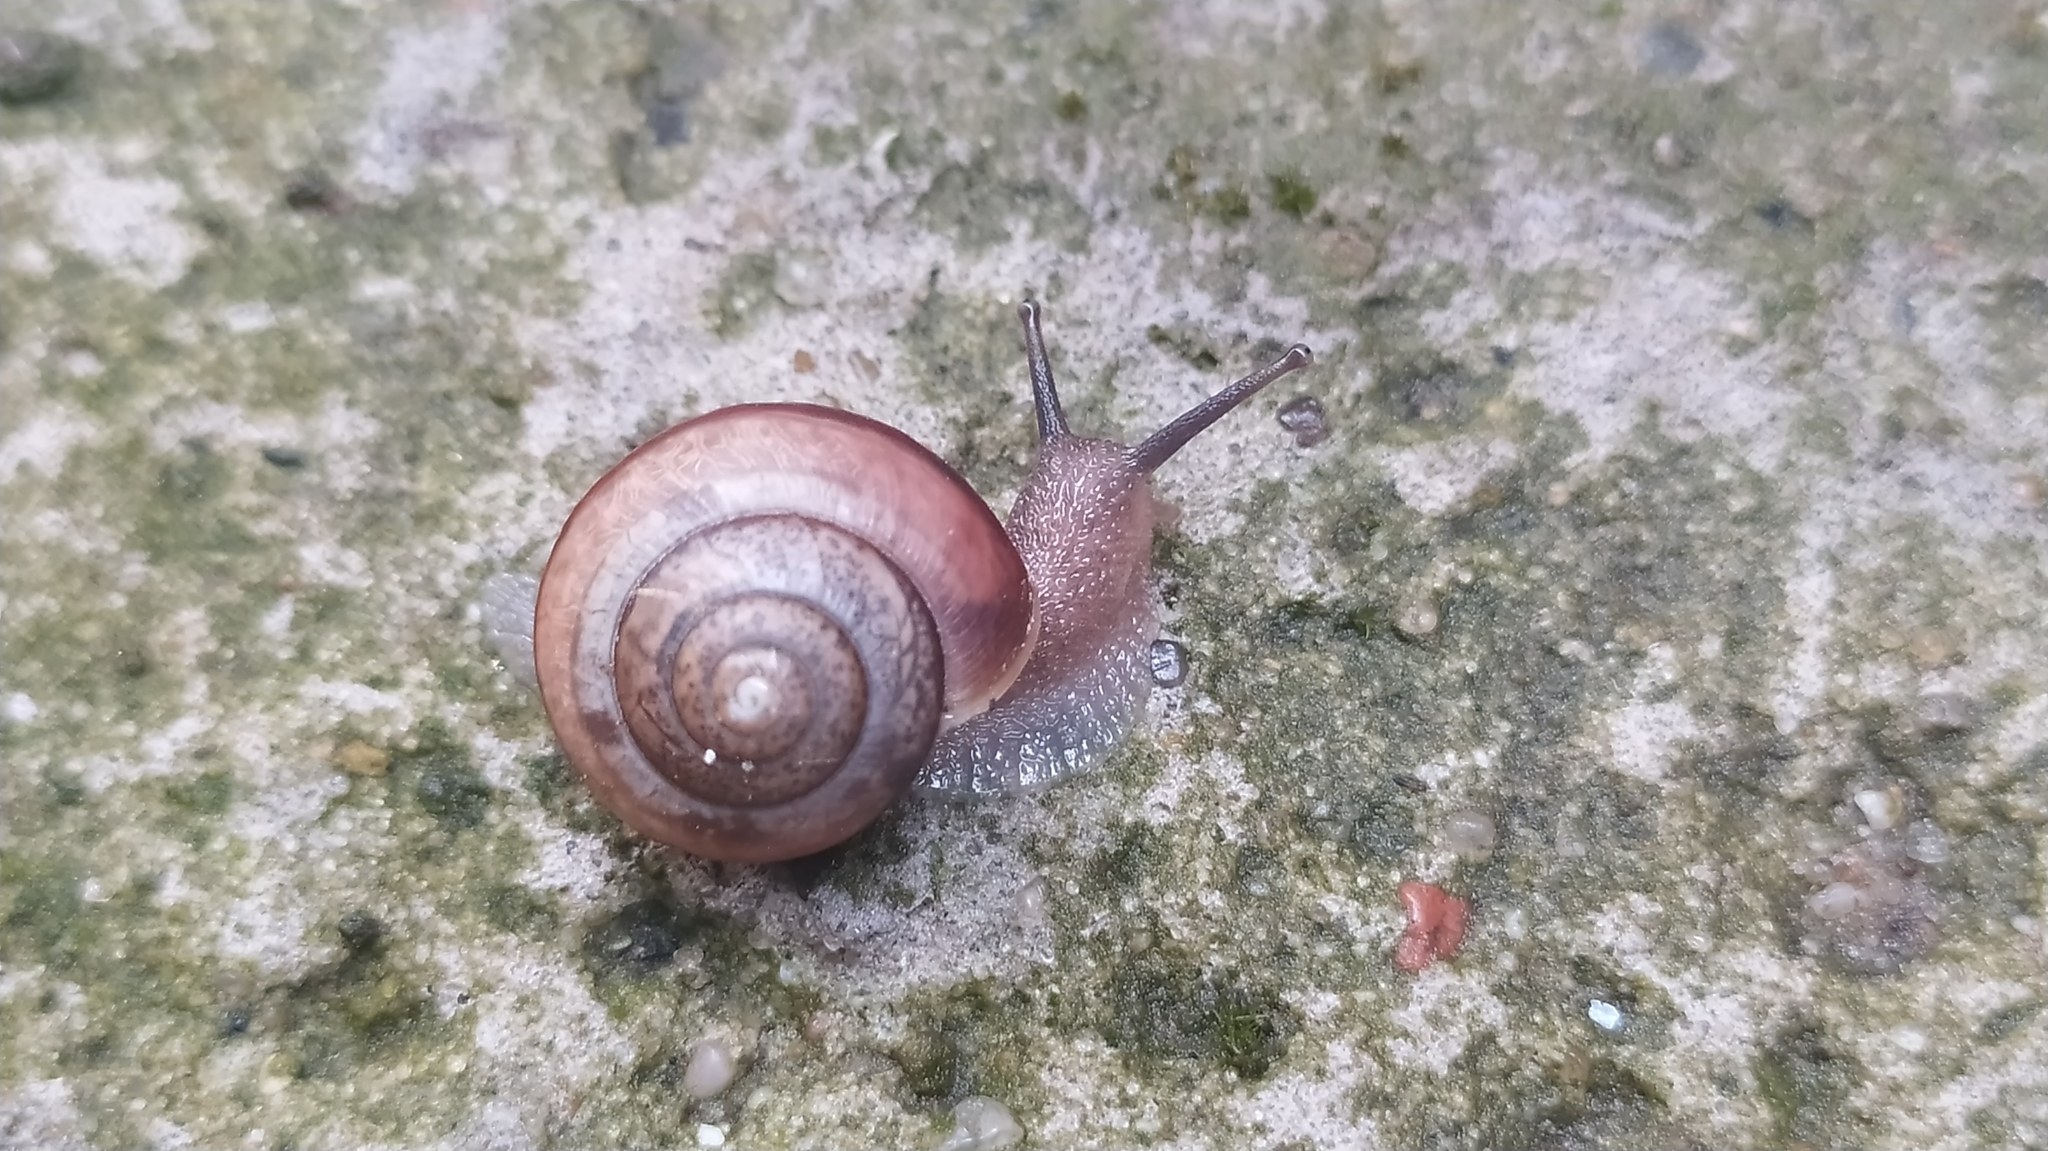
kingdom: Animalia
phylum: Mollusca
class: Gastropoda
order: Stylommatophora
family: Camaenidae
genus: Fruticicola
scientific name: Fruticicola fruticum
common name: Bush snail
